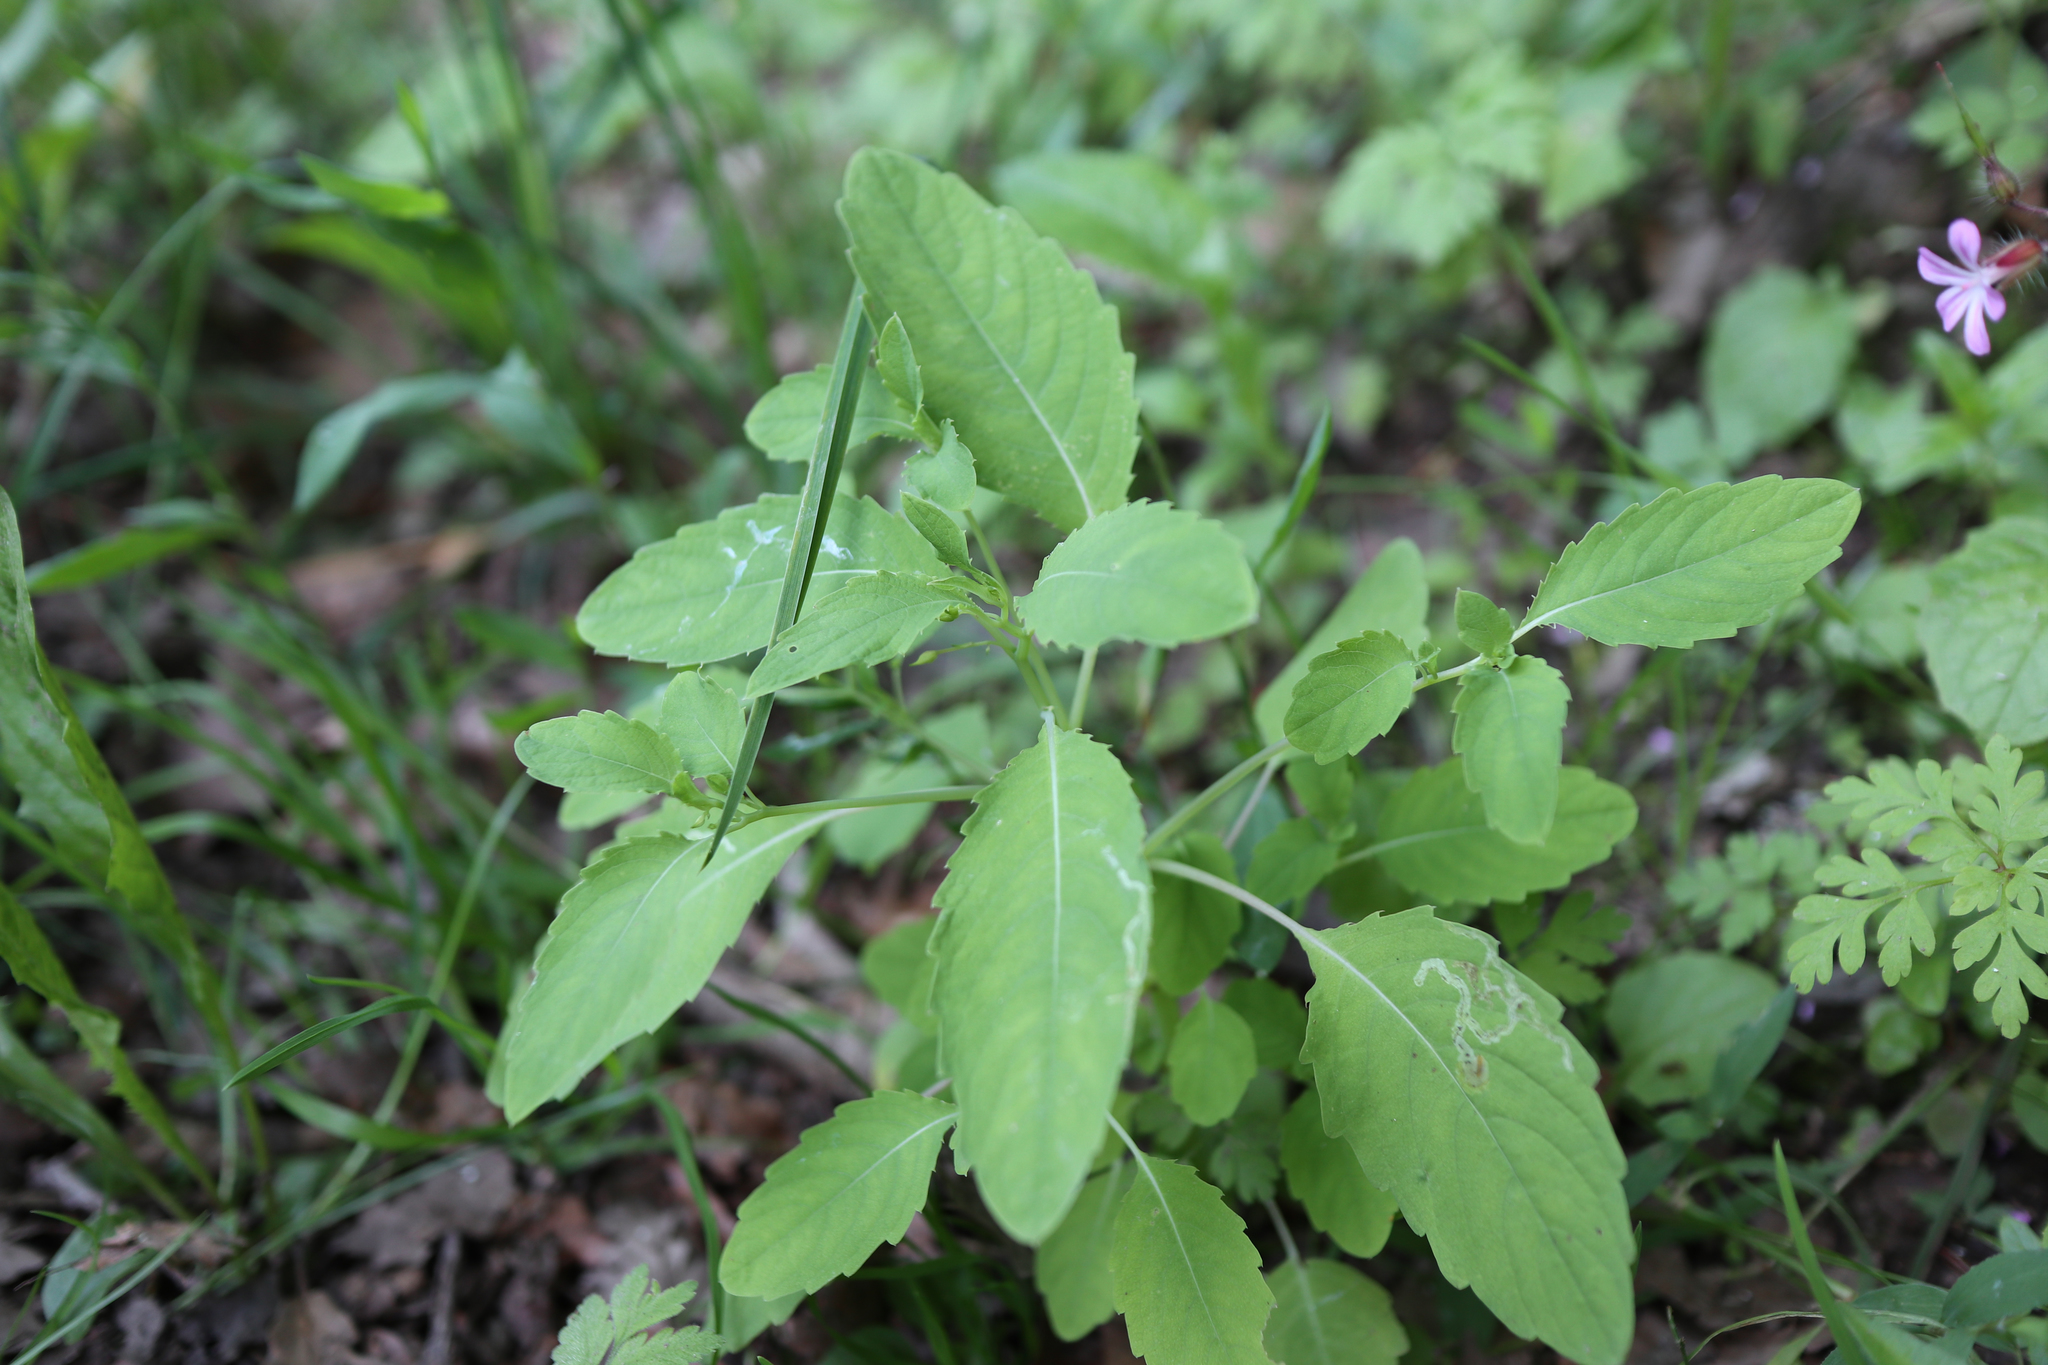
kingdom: Plantae
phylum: Tracheophyta
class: Magnoliopsida
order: Ericales
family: Balsaminaceae
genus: Impatiens
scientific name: Impatiens parviflora
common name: Small balsam
